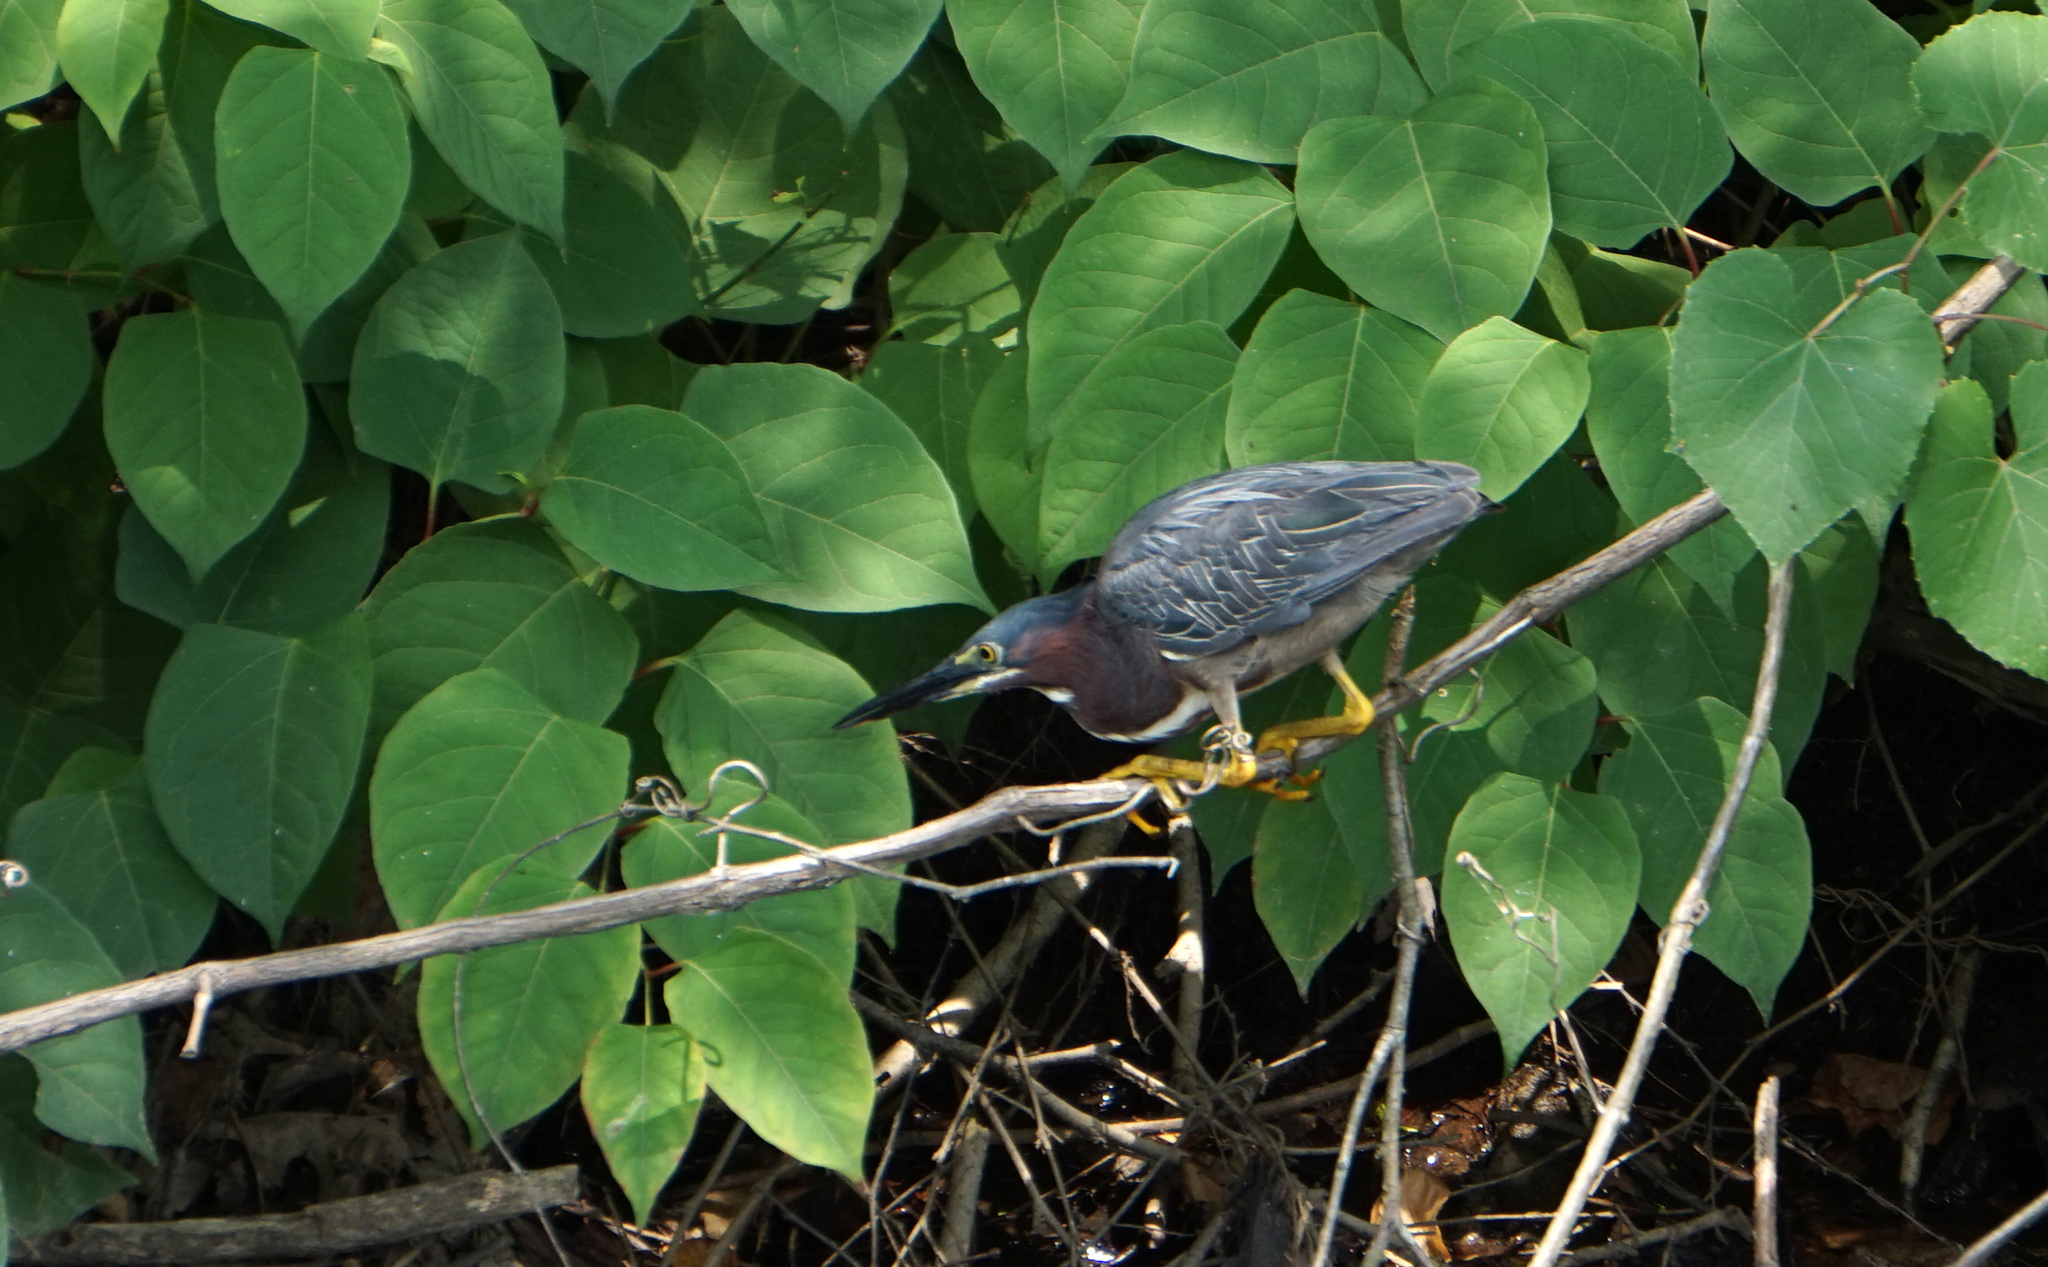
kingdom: Animalia
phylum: Chordata
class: Aves
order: Pelecaniformes
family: Ardeidae
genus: Butorides
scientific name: Butorides virescens
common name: Green heron
